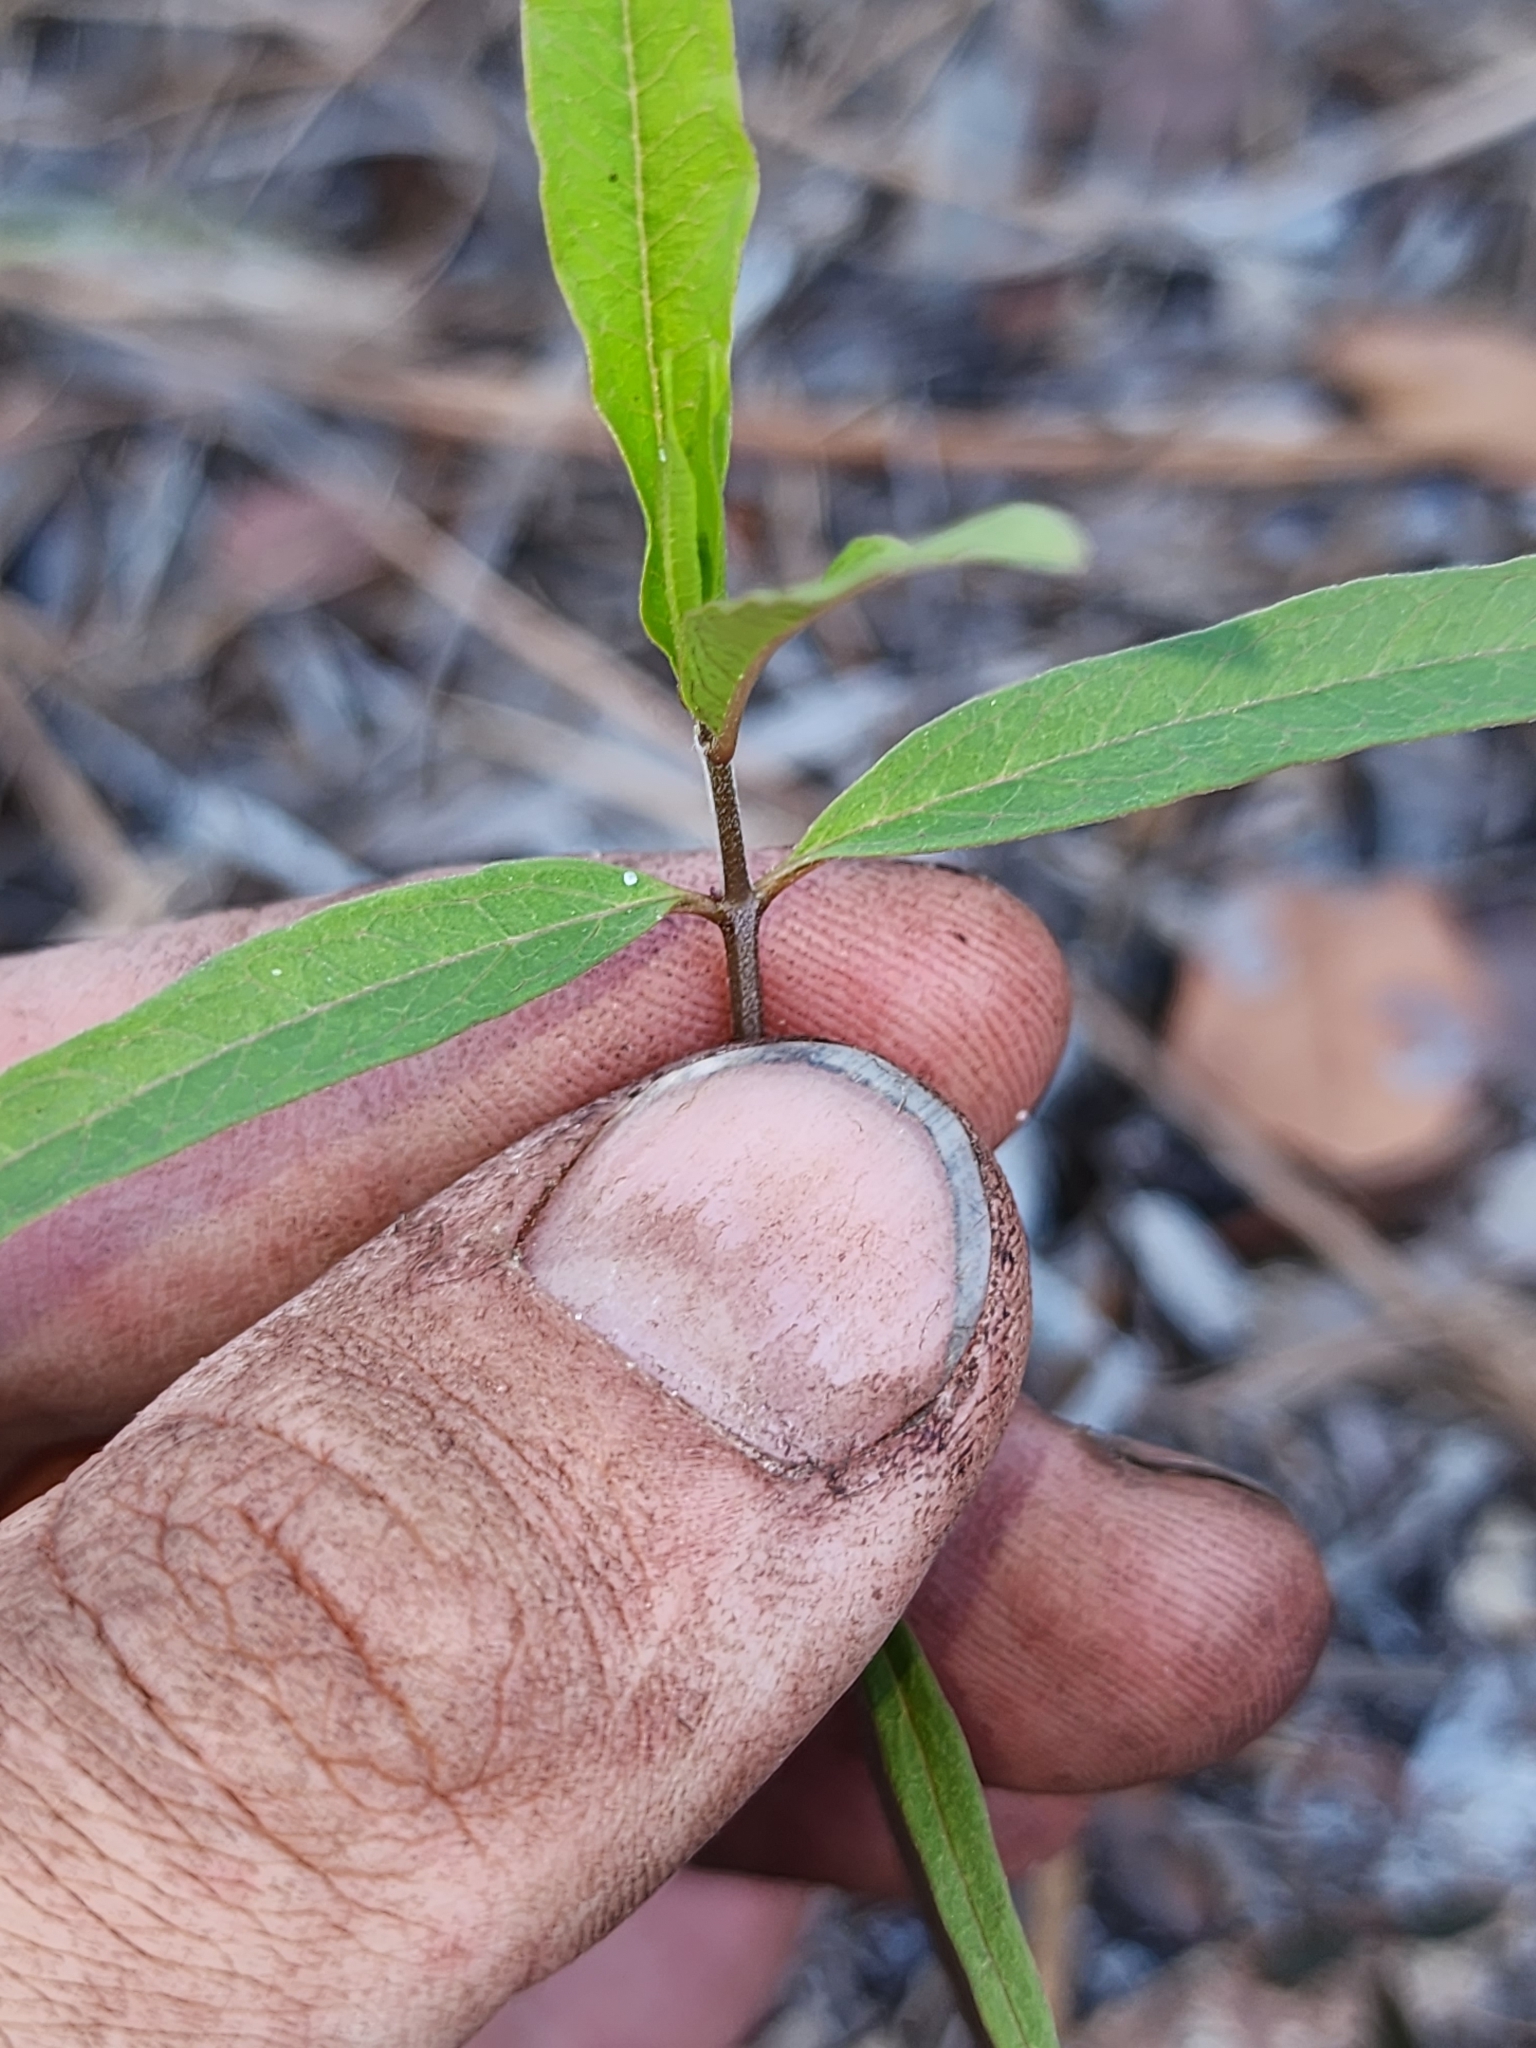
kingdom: Plantae
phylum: Tracheophyta
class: Magnoliopsida
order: Gentianales
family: Apocynaceae
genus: Asclepias
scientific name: Asclepias curtissii
